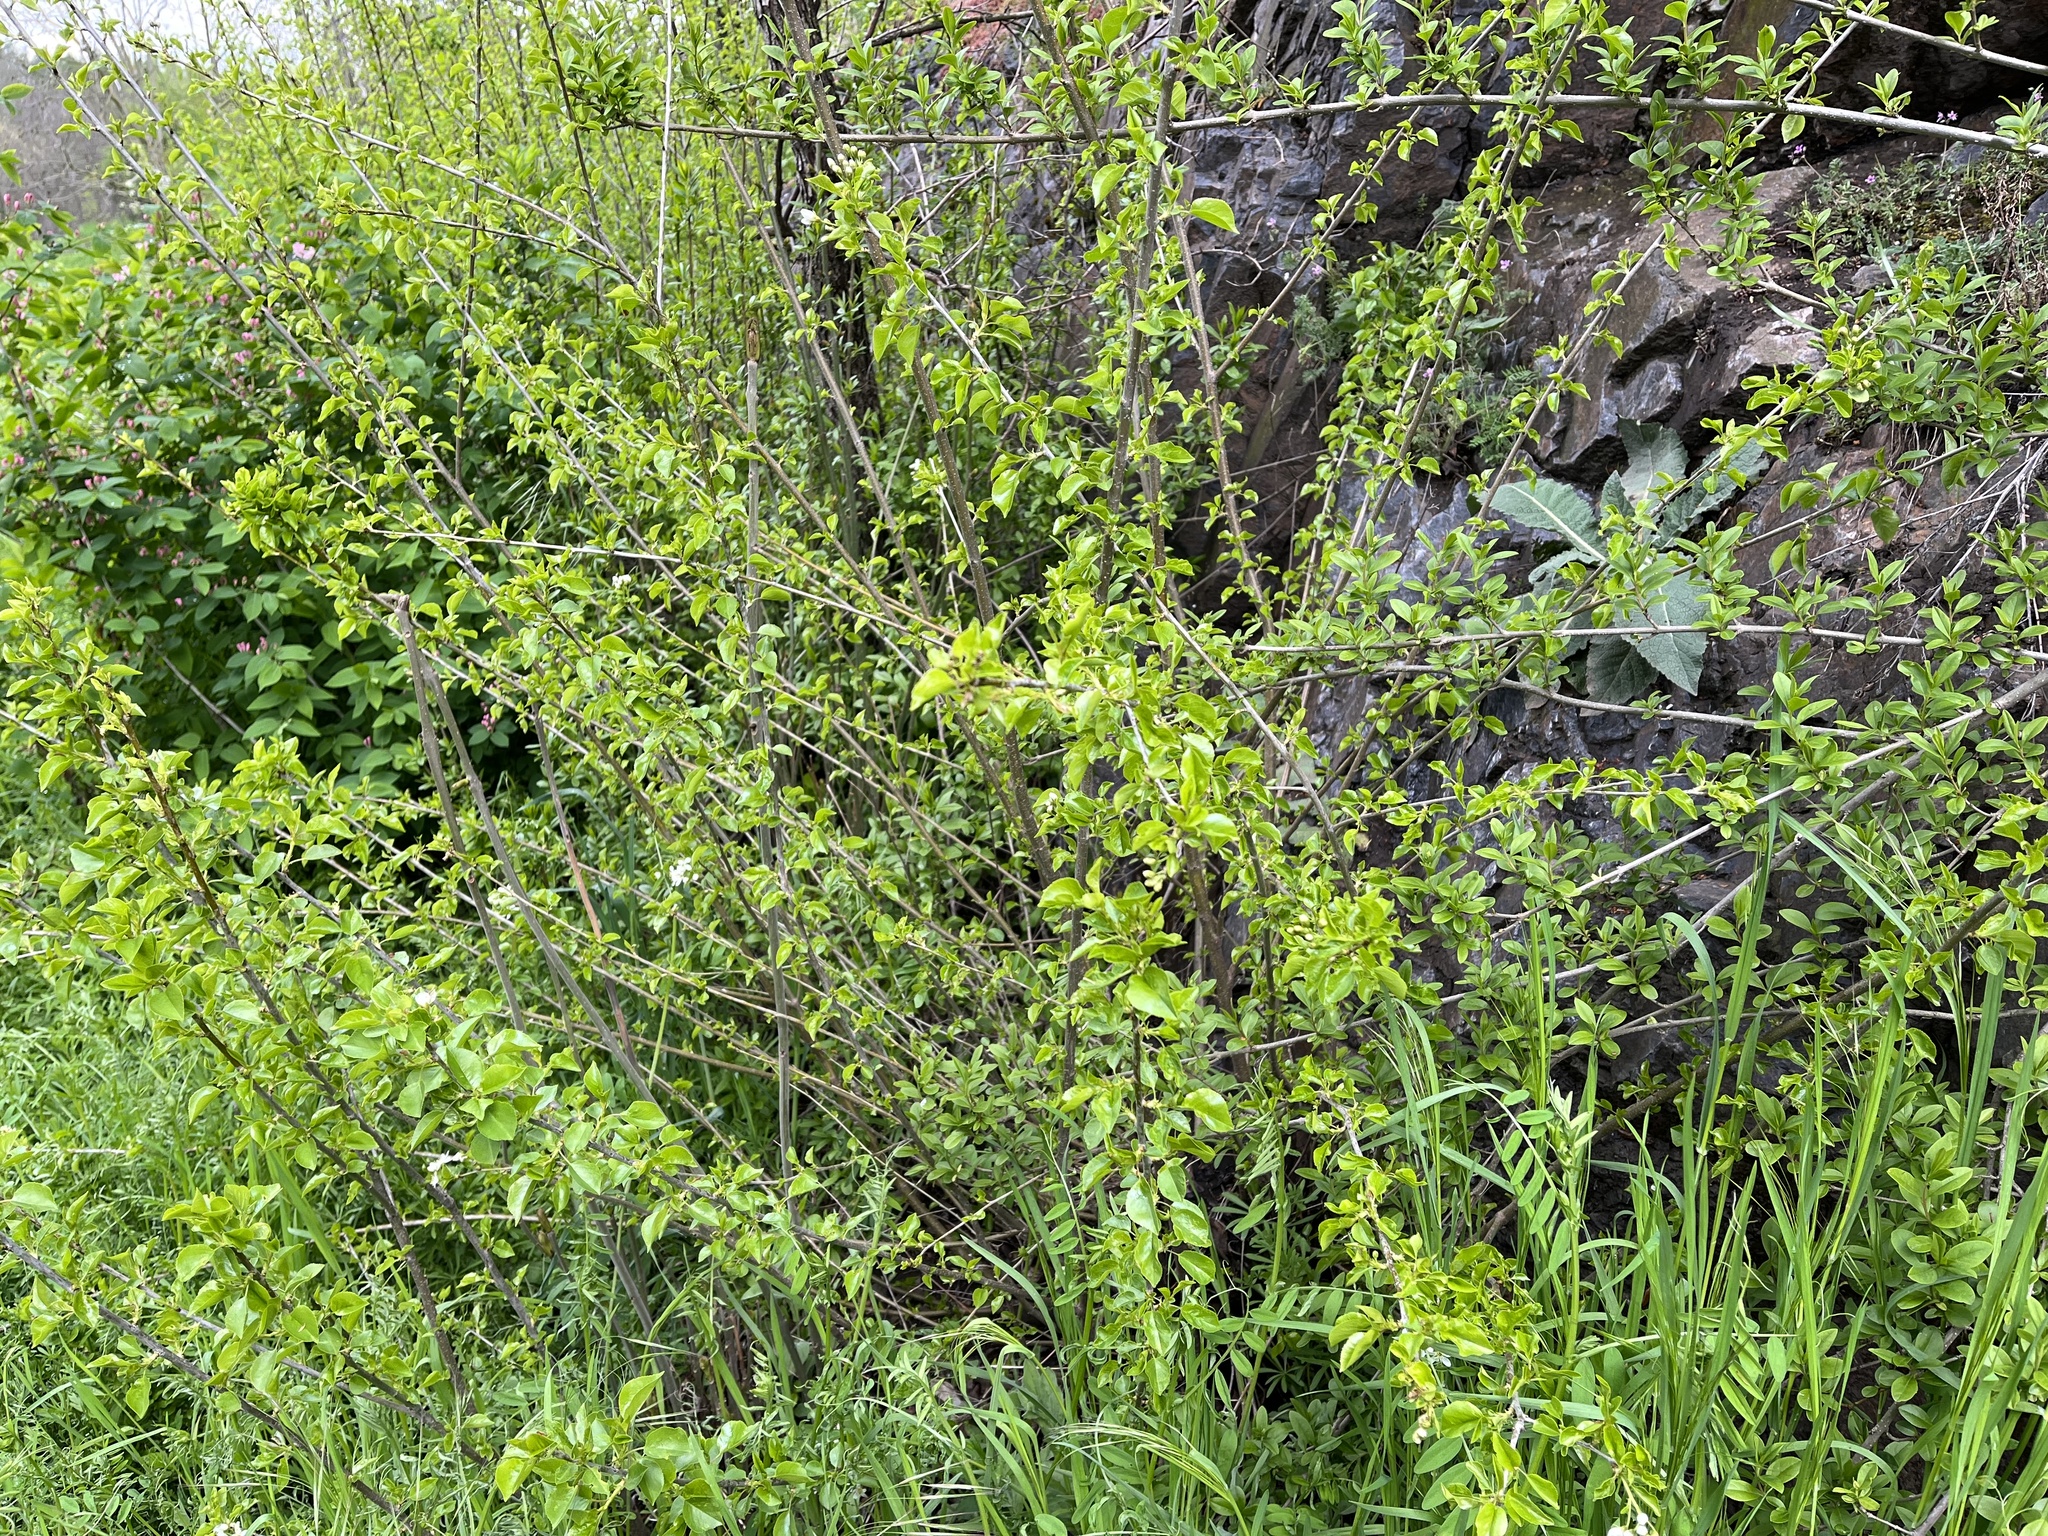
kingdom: Plantae
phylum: Tracheophyta
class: Magnoliopsida
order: Rosales
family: Rosaceae
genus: Prunus
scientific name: Prunus mahaleb
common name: Mahaleb cherry
